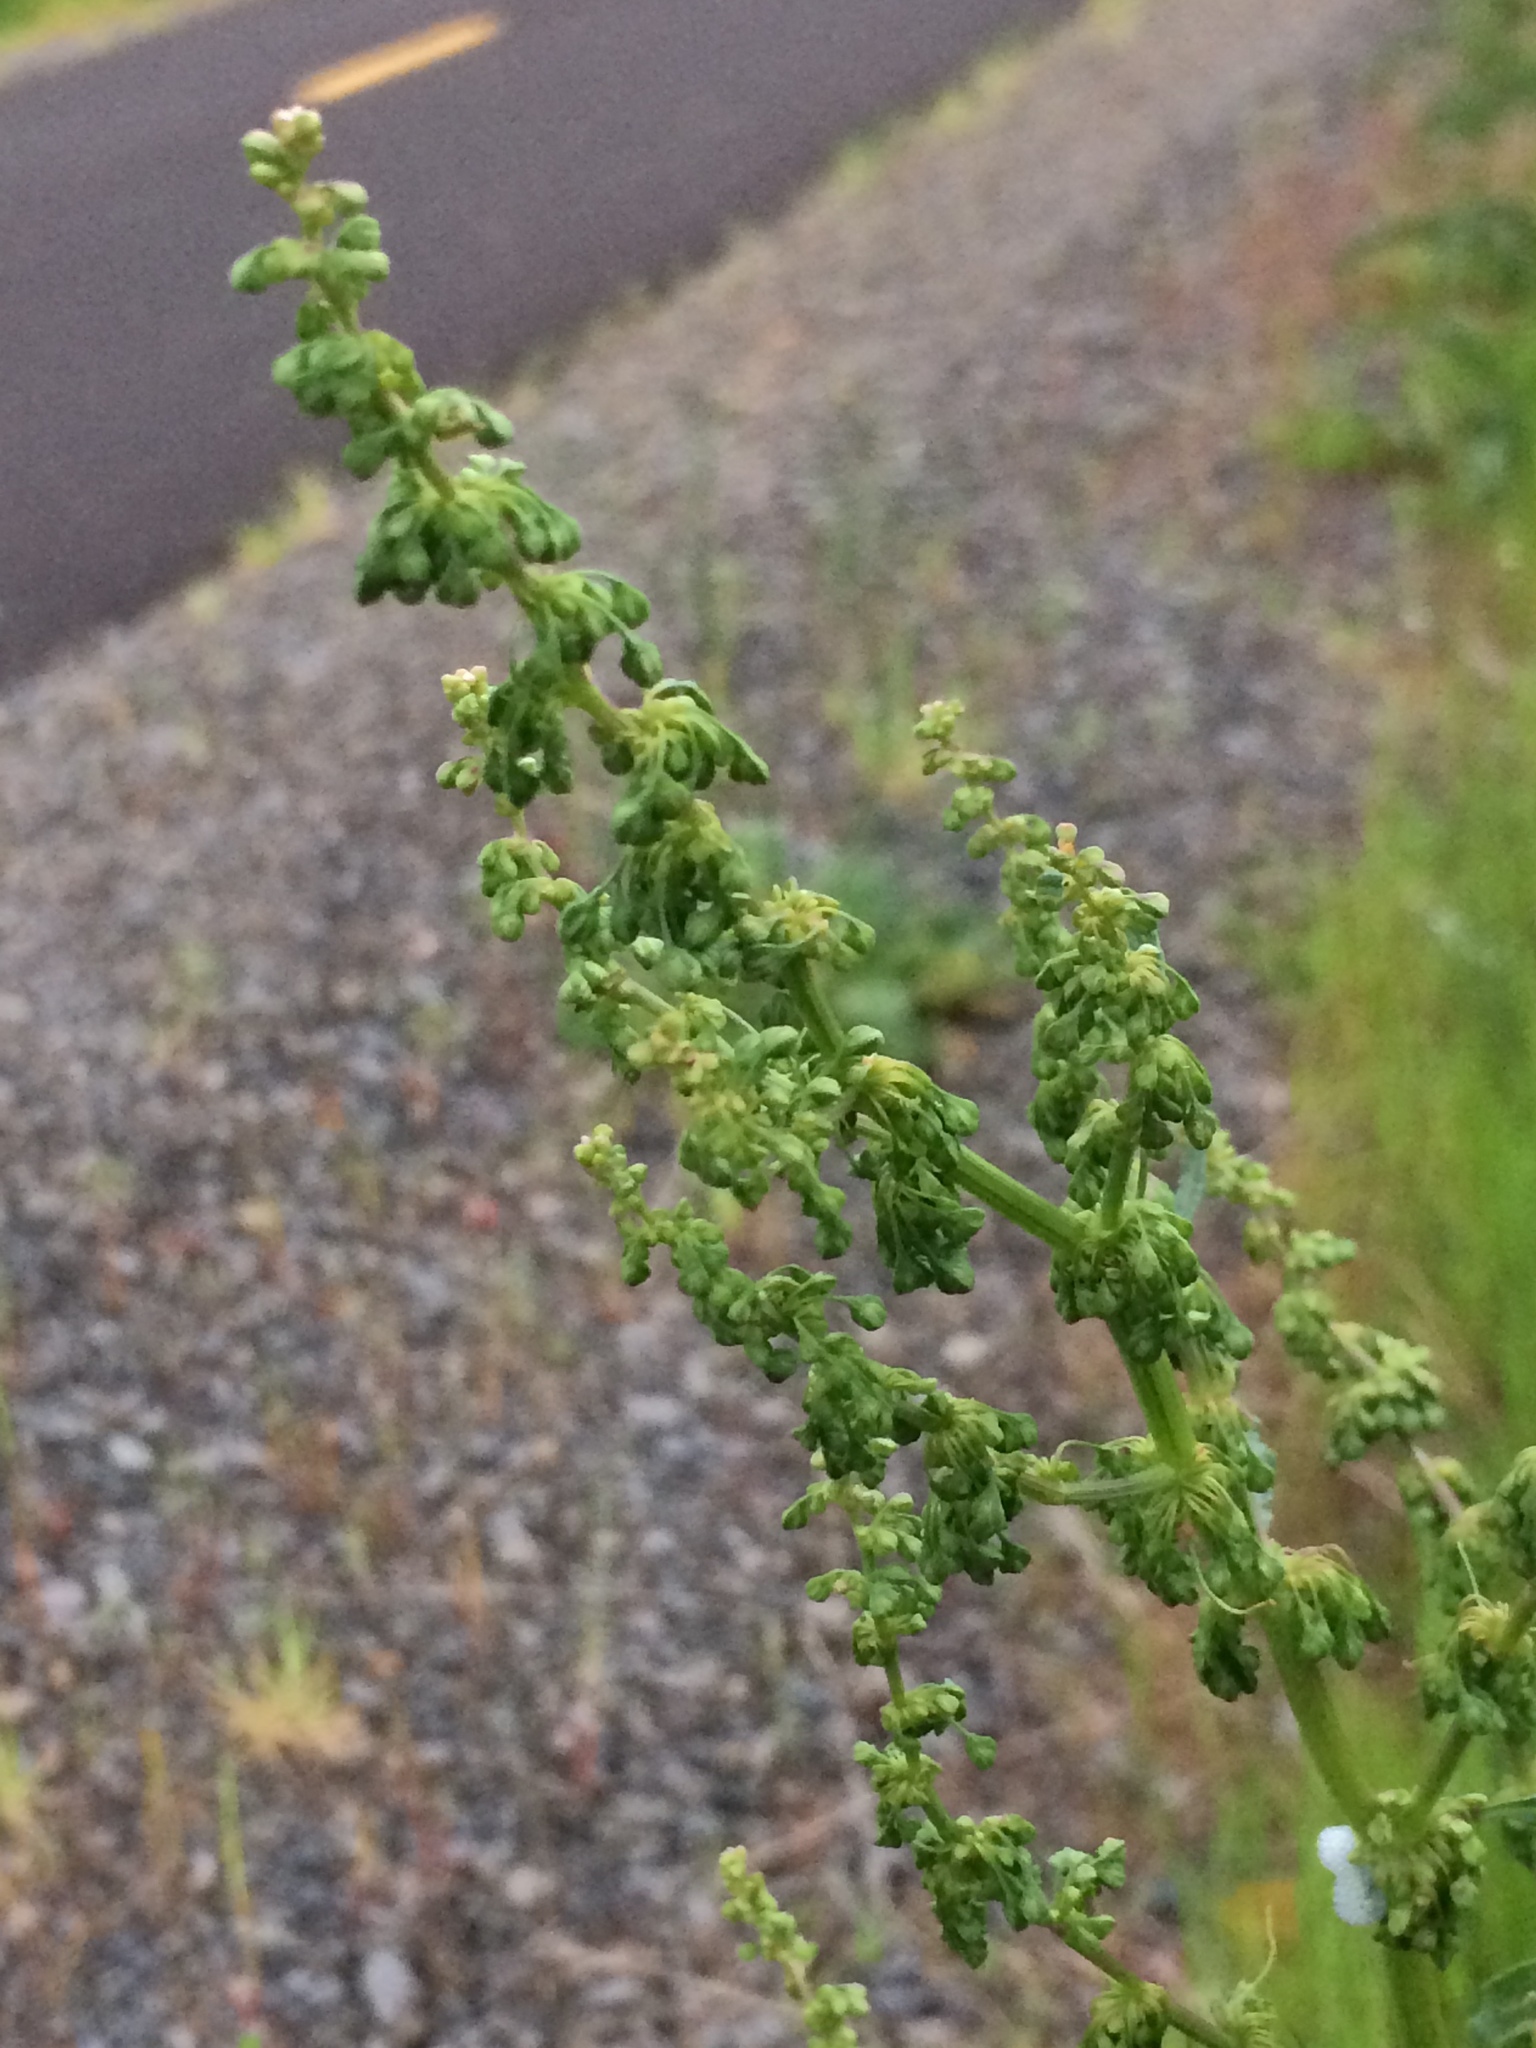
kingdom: Plantae
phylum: Tracheophyta
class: Magnoliopsida
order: Caryophyllales
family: Polygonaceae
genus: Rumex
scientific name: Rumex crispus
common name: Curled dock
